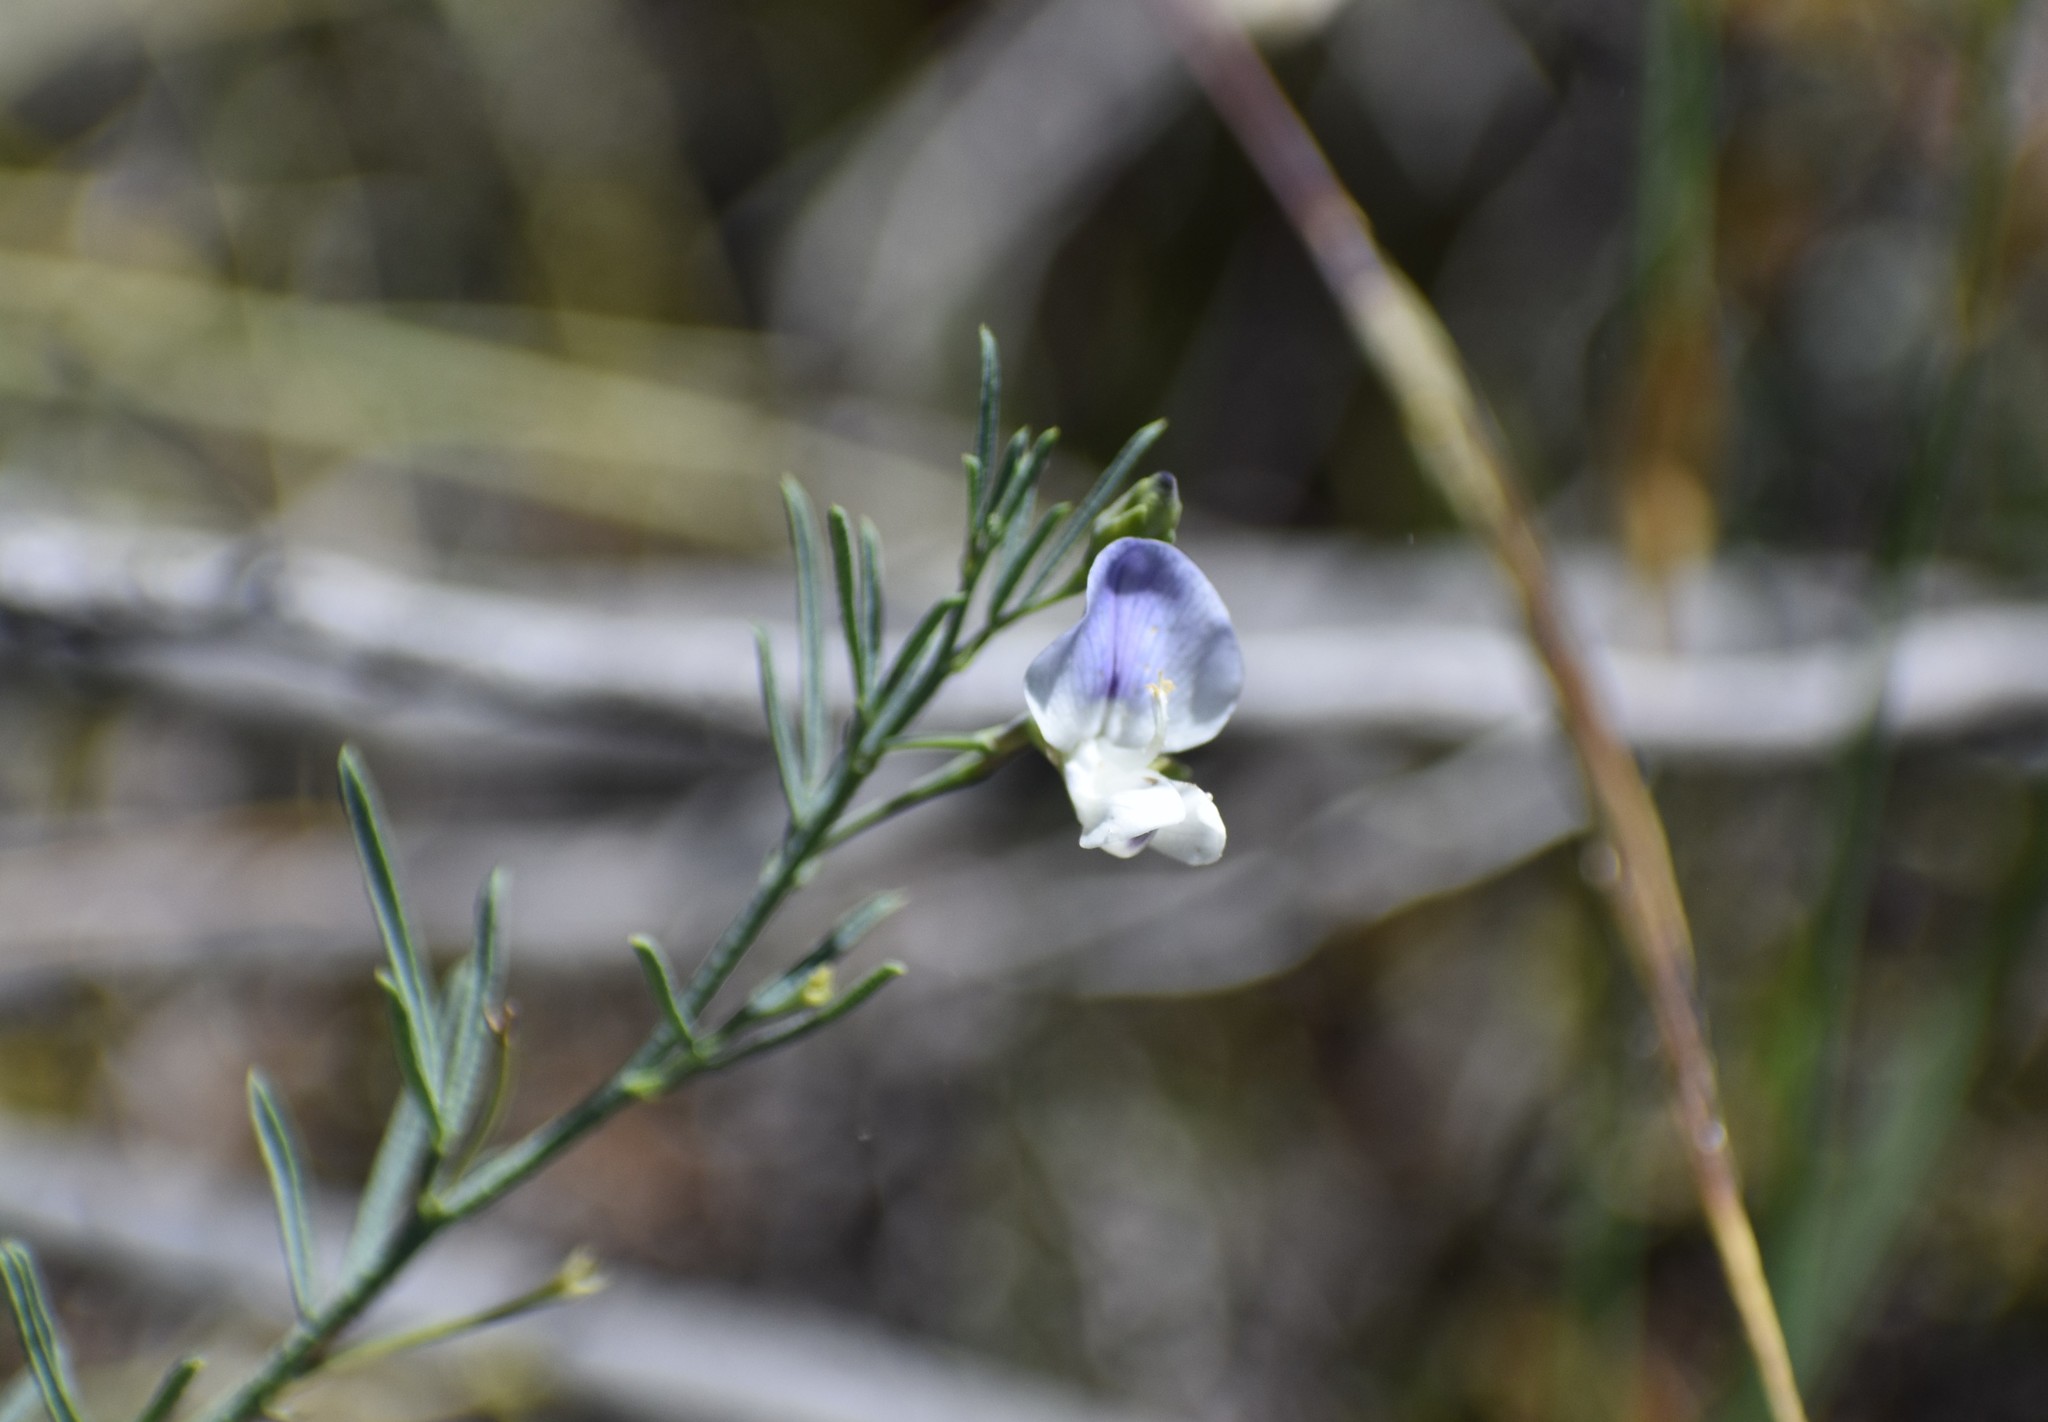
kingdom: Plantae
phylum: Tracheophyta
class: Magnoliopsida
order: Fabales
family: Fabaceae
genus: Psoralea
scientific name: Psoralea
